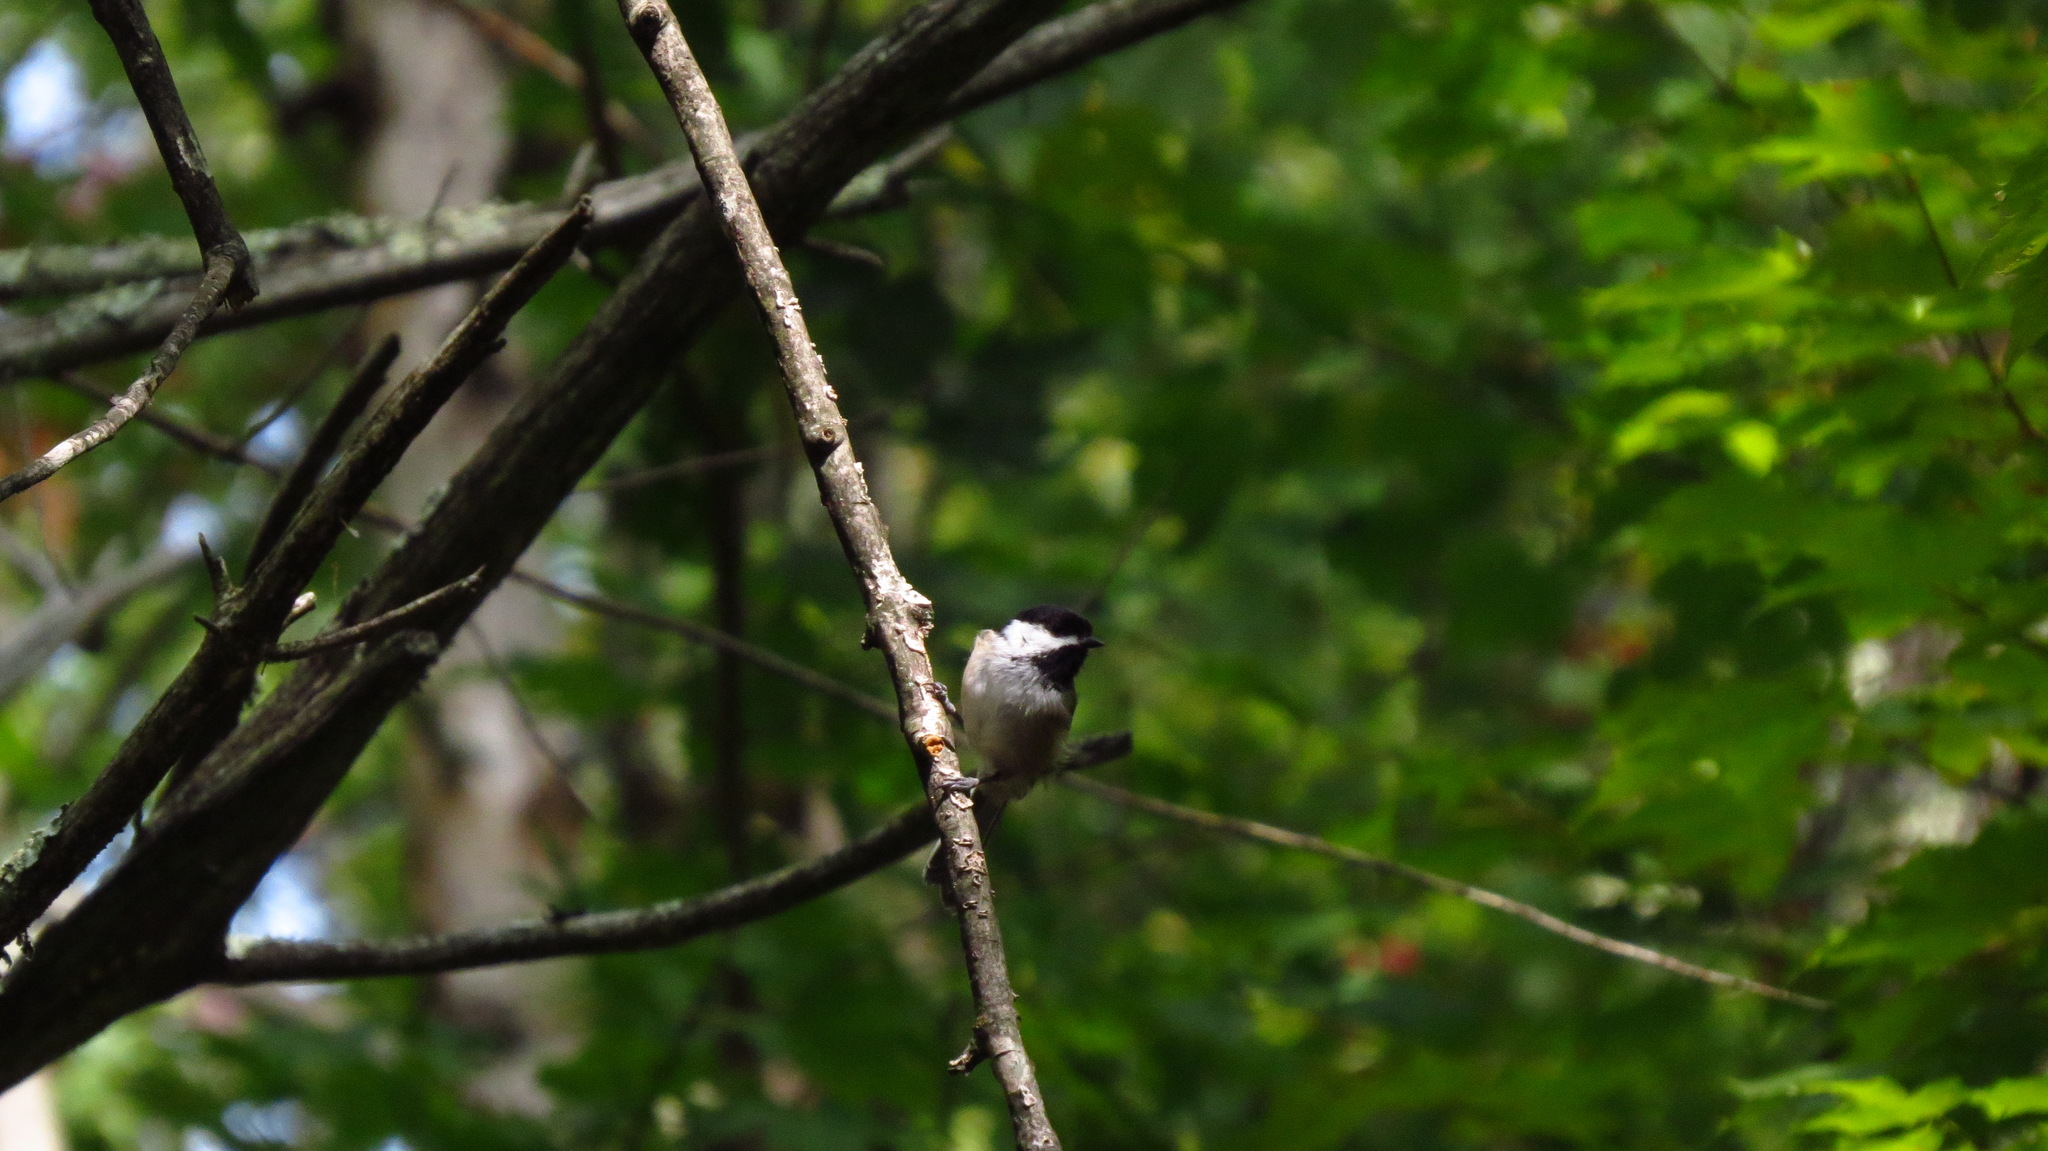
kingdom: Animalia
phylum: Chordata
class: Aves
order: Passeriformes
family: Paridae
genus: Poecile
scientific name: Poecile atricapillus
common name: Black-capped chickadee
